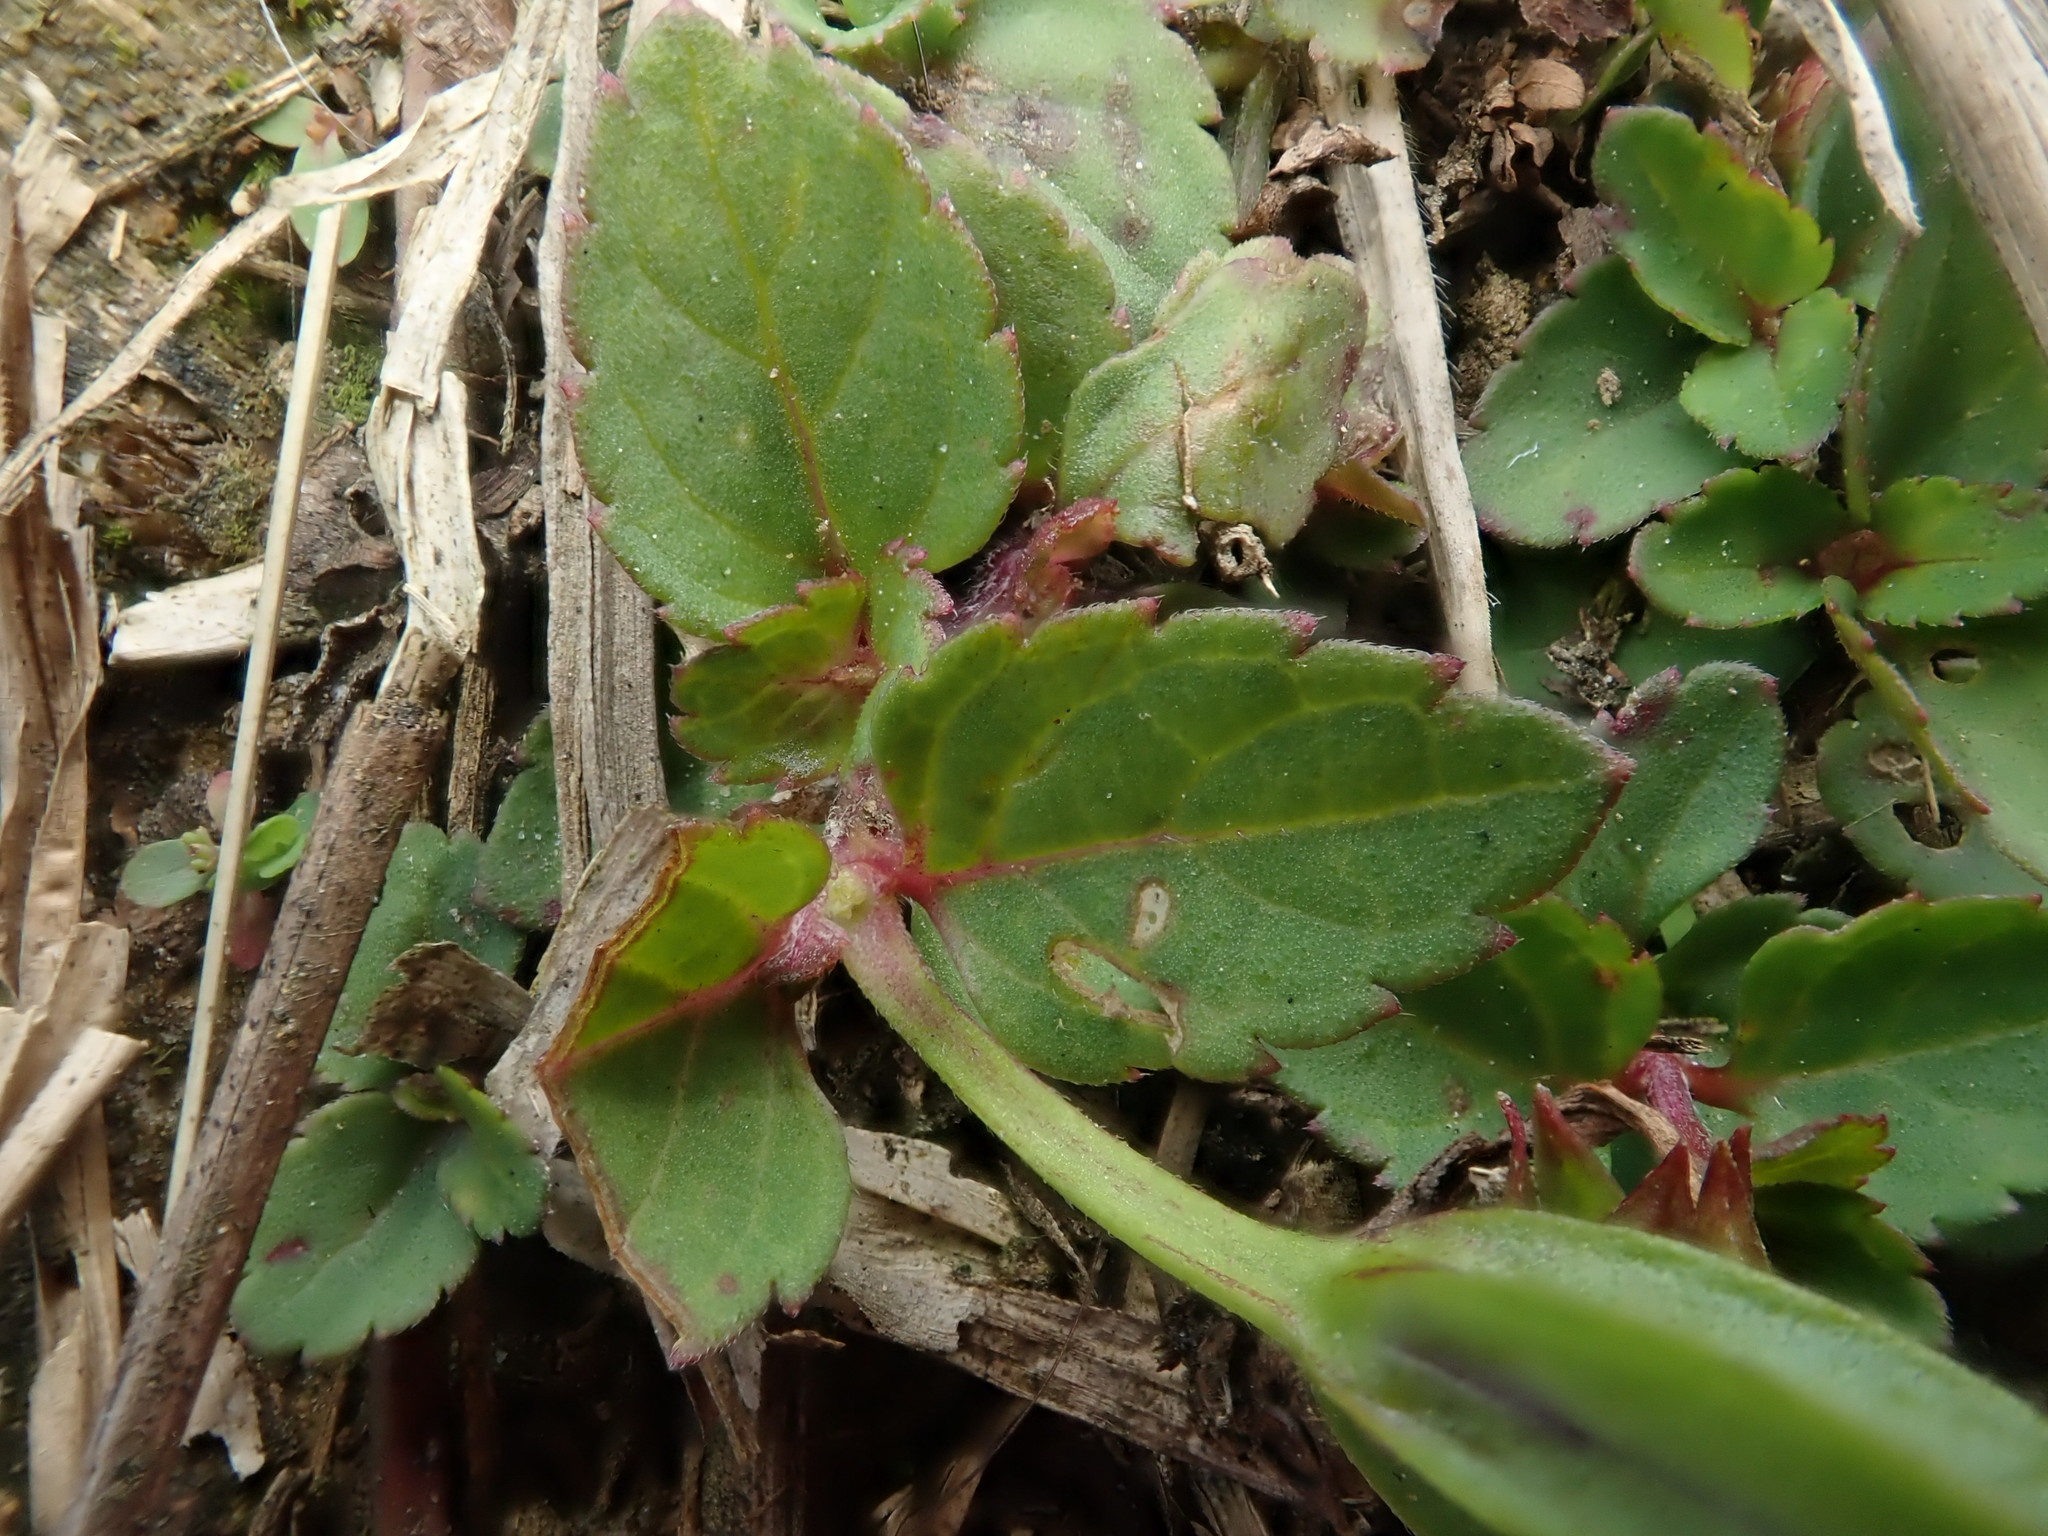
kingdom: Plantae
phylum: Tracheophyta
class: Magnoliopsida
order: Lamiales
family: Linderniaceae
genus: Torenia
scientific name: Torenia concolor
